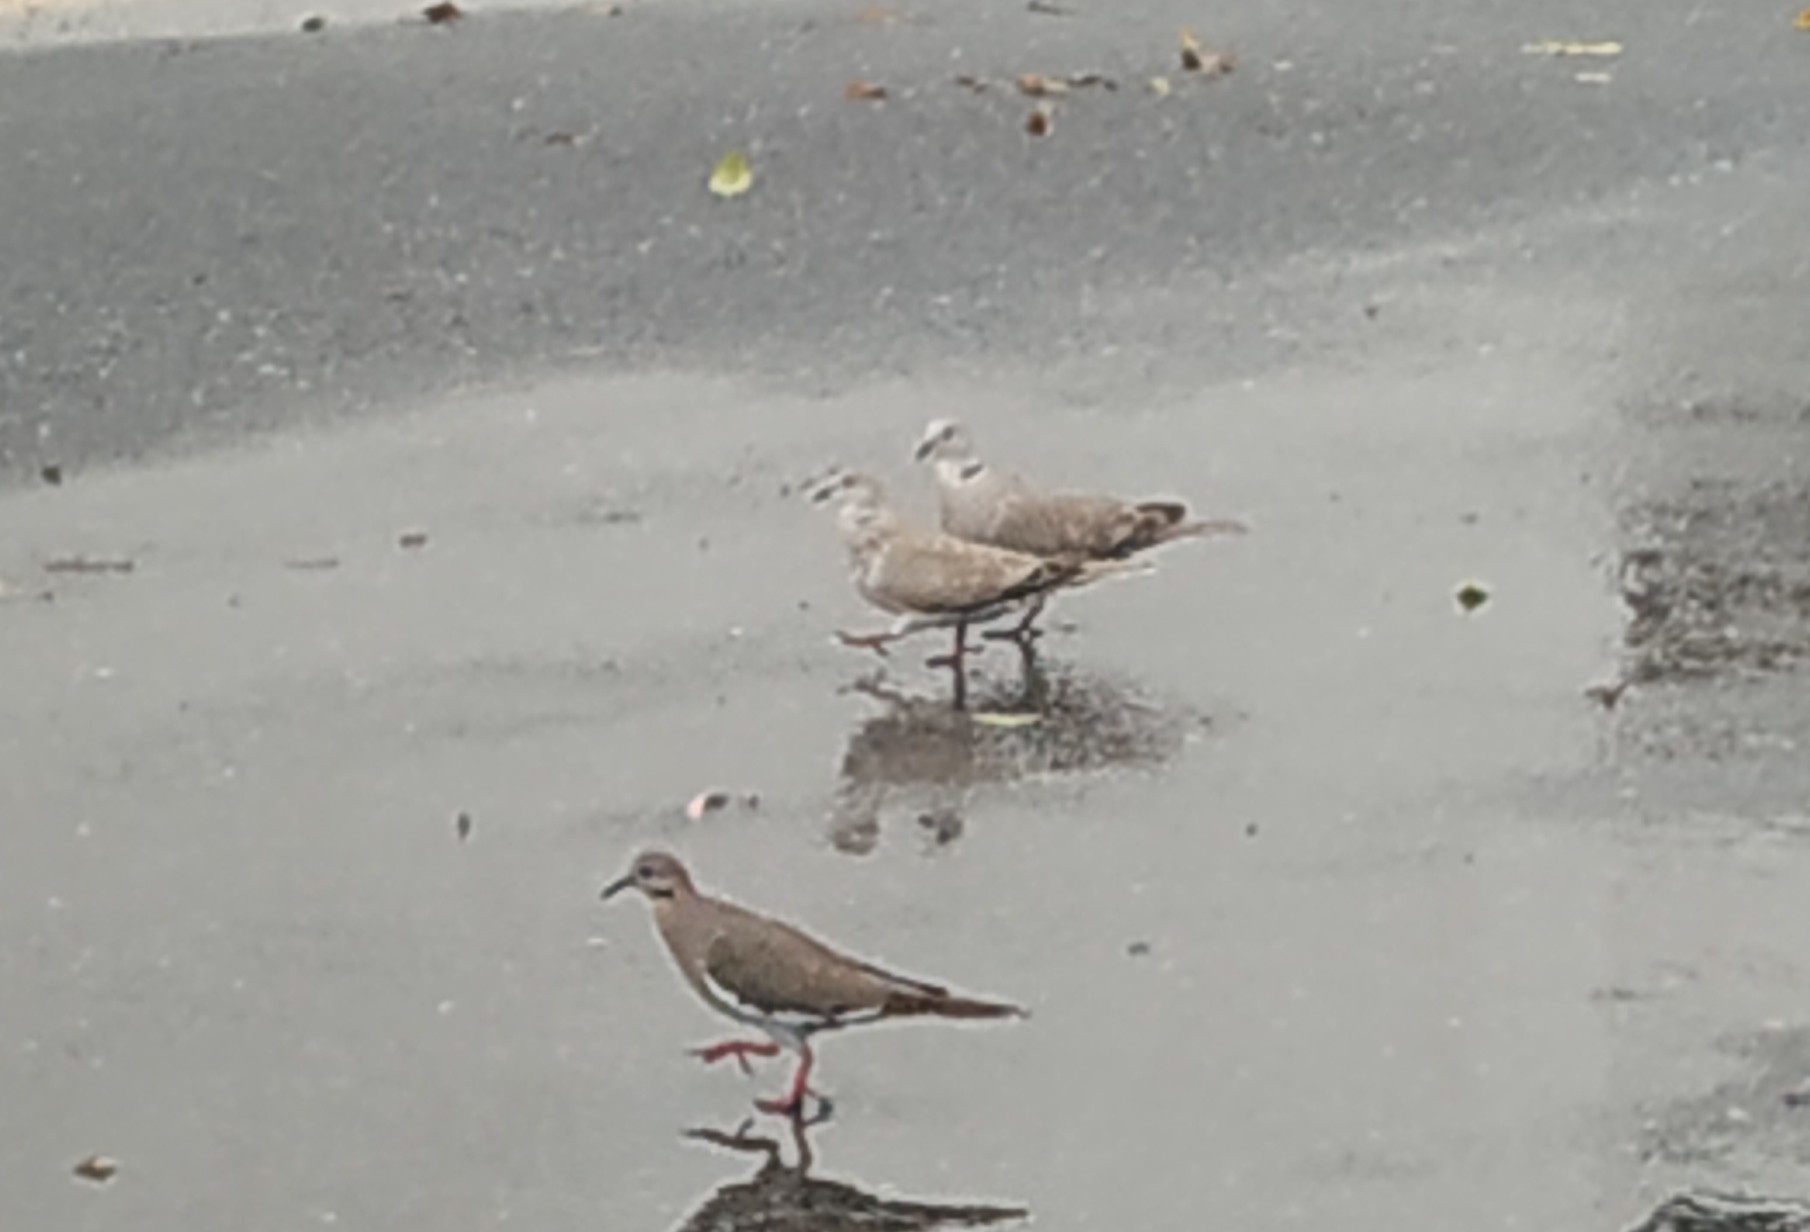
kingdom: Animalia
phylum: Chordata
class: Aves
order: Columbiformes
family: Columbidae
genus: Streptopelia
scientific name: Streptopelia decaocto
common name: Eurasian collared dove
